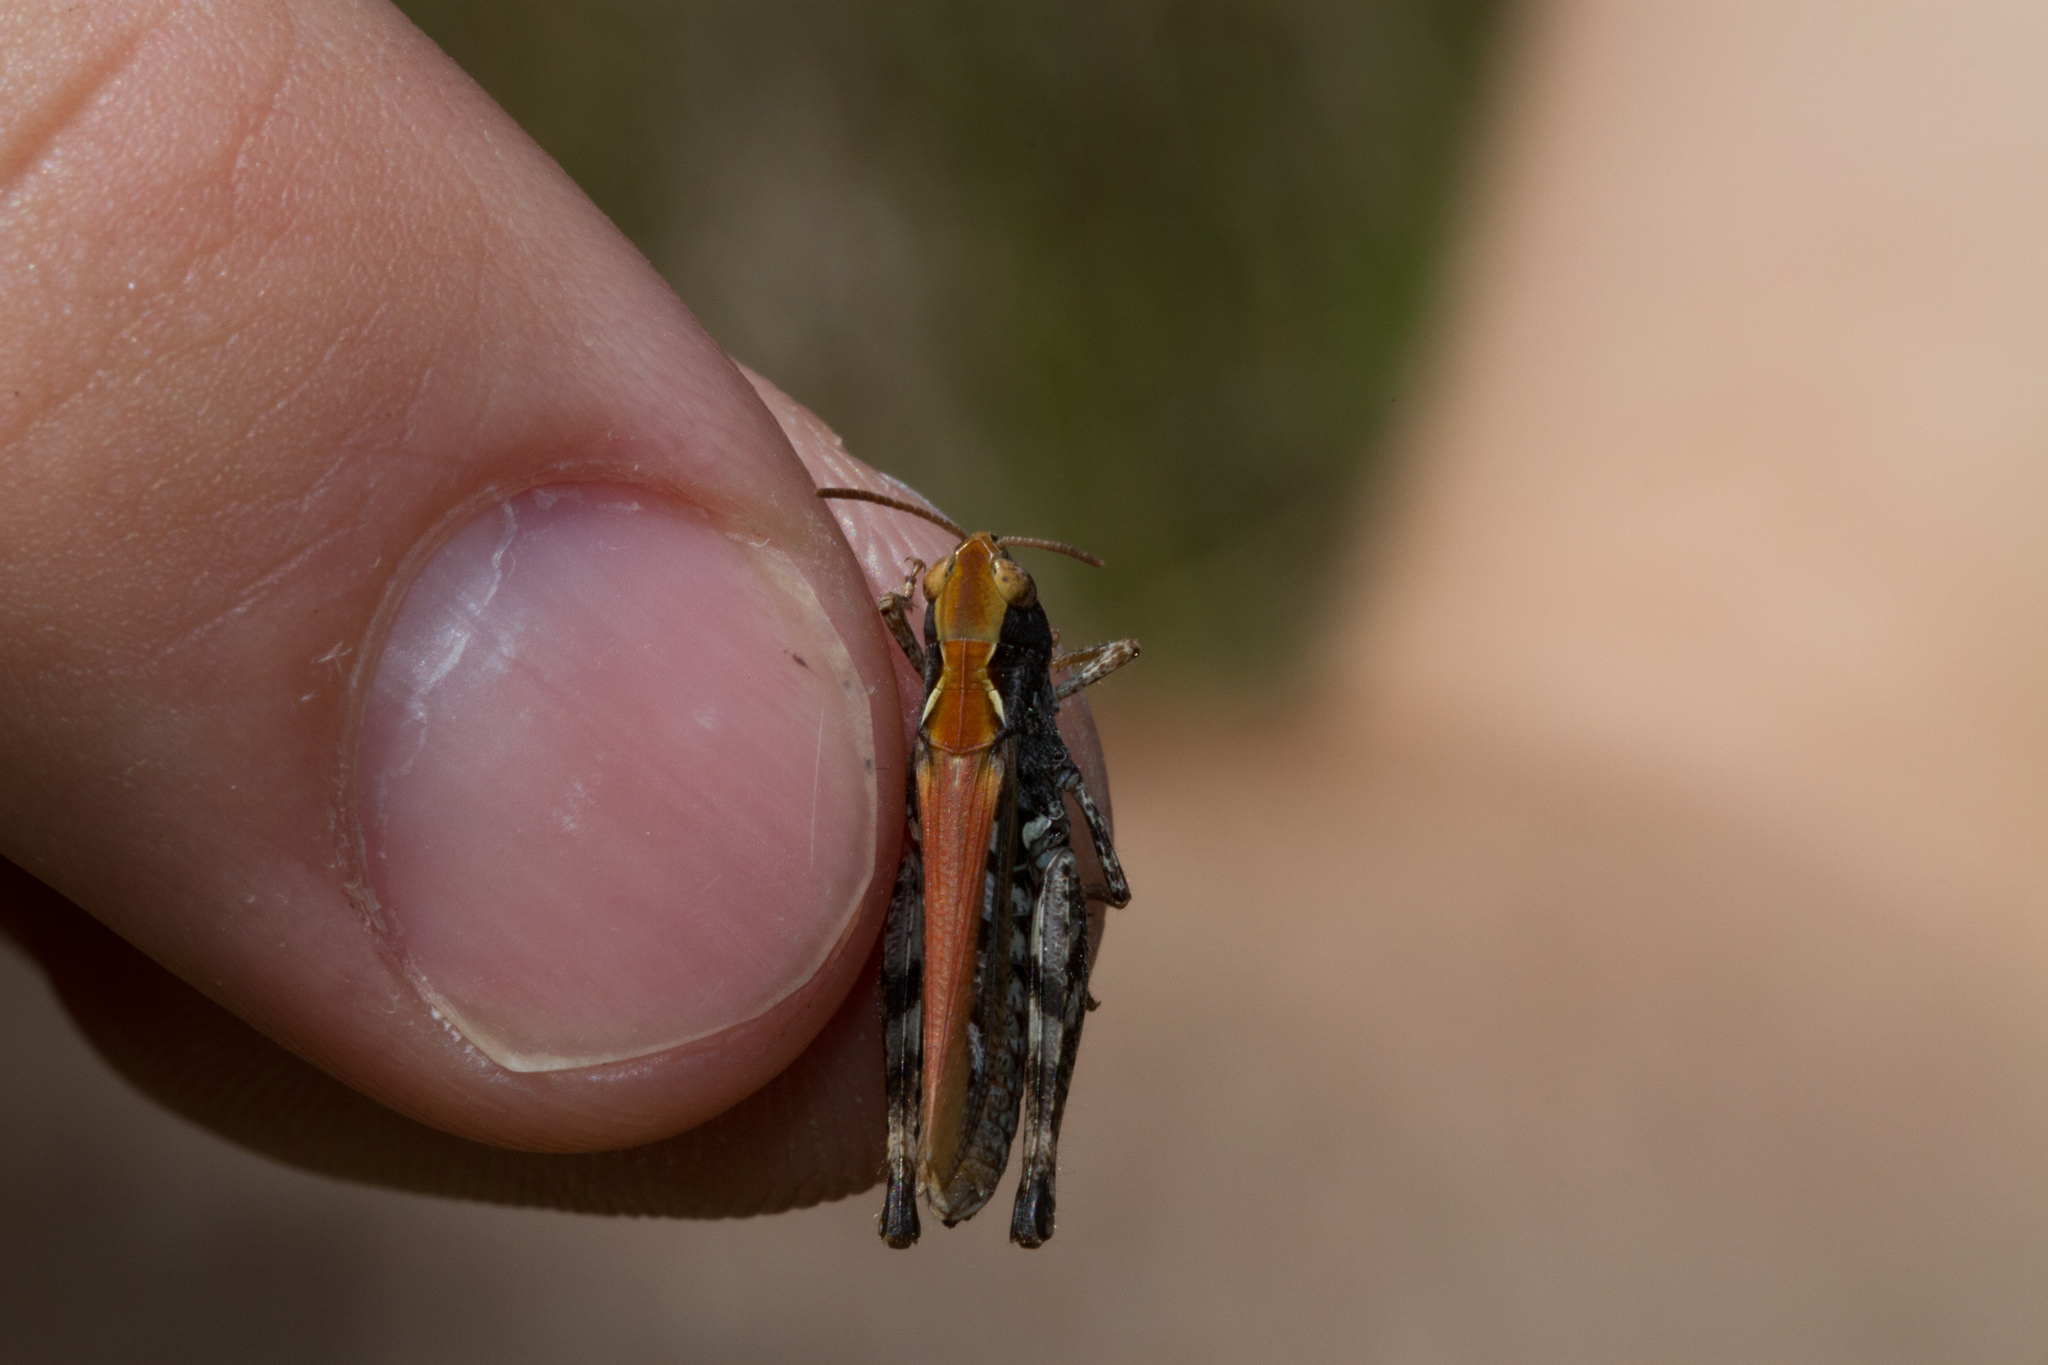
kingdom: Animalia
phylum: Arthropoda
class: Insecta
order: Orthoptera
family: Acrididae
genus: Myrmeleotettix
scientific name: Myrmeleotettix maculatus
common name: Mottled grasshopper
